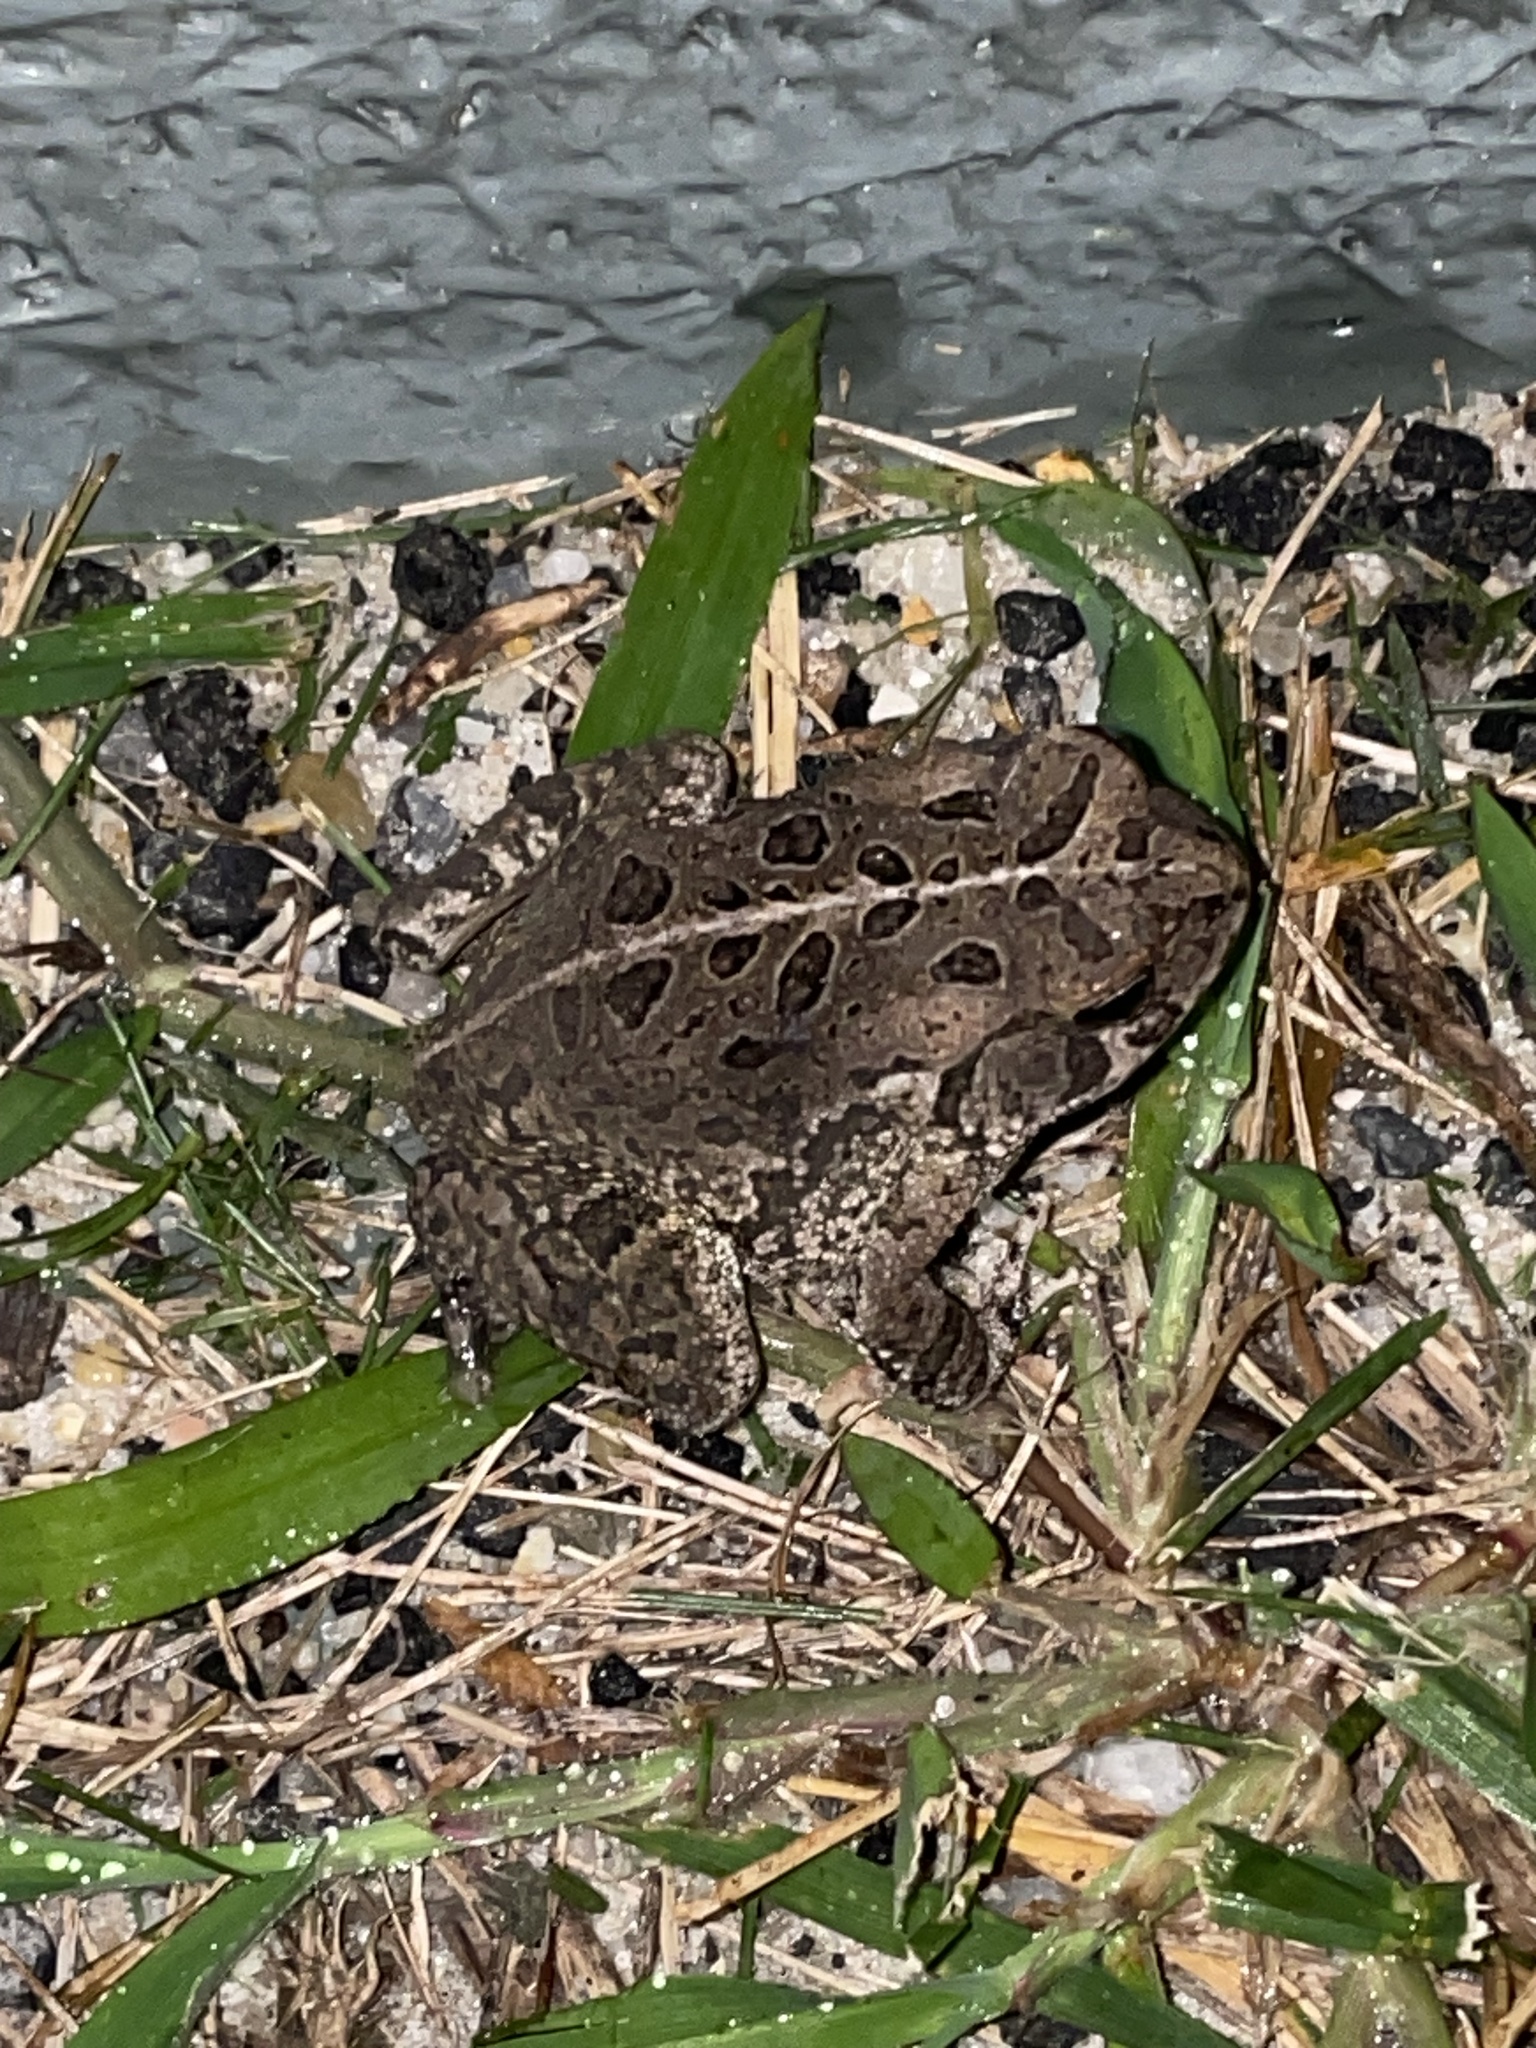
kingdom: Animalia
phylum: Chordata
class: Amphibia
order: Anura
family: Bufonidae
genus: Anaxyrus
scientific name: Anaxyrus fowleri
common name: Fowler's toad
